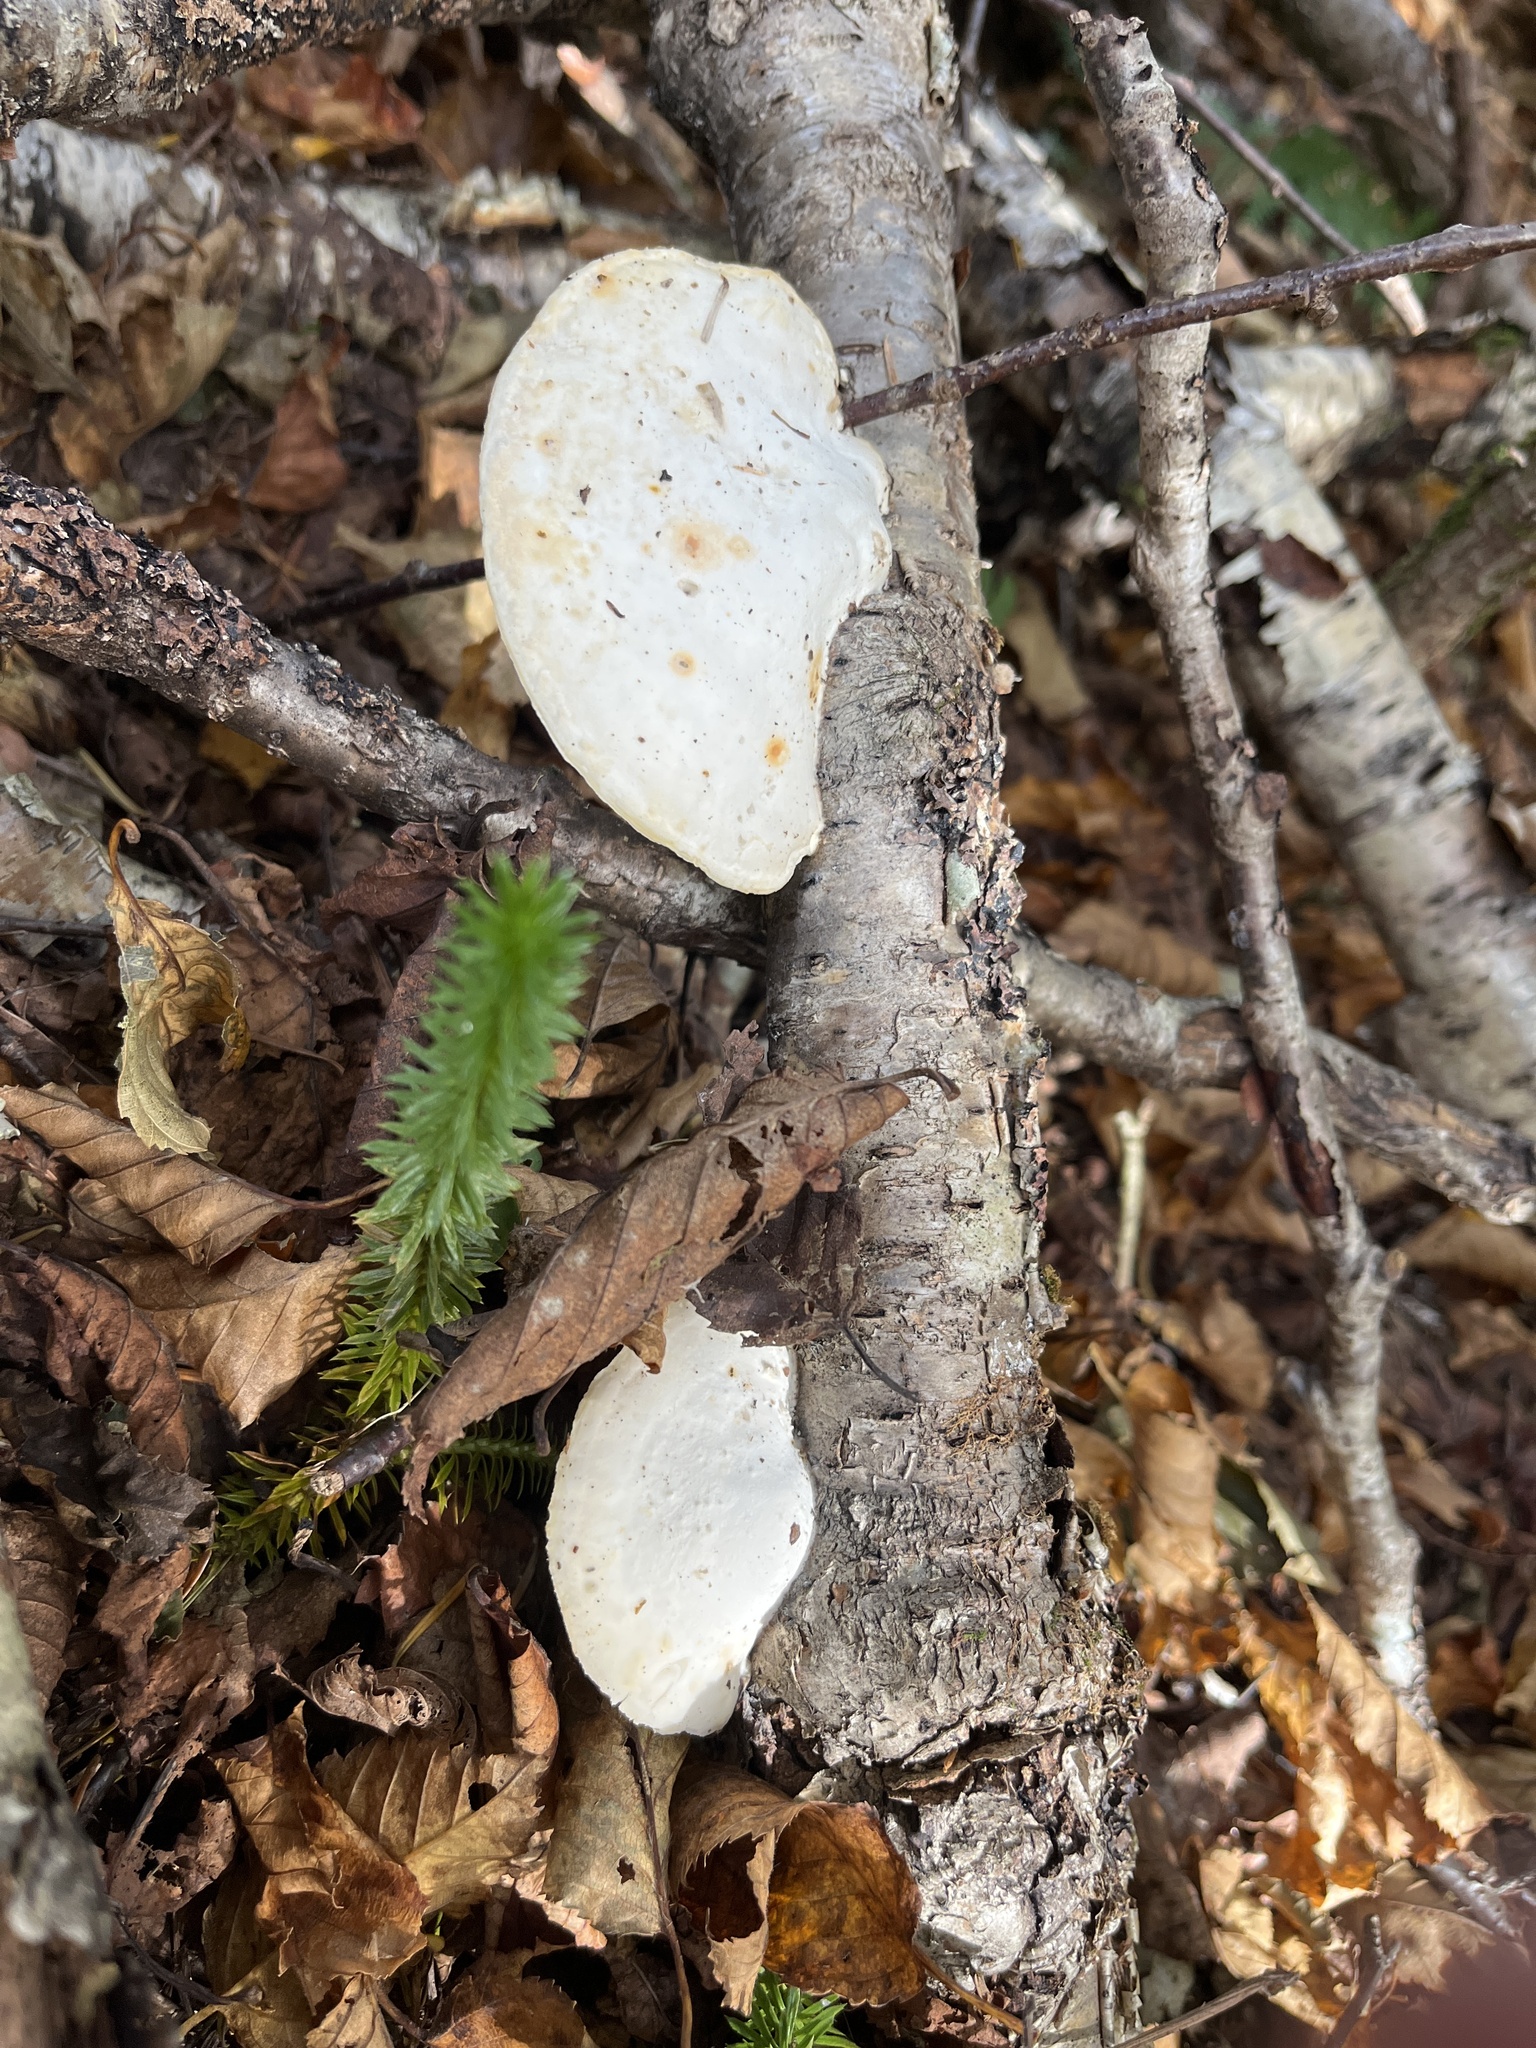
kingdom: Fungi
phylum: Basidiomycota
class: Agaricomycetes
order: Polyporales
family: Incrustoporiaceae
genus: Tyromyces
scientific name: Tyromyces chioneus
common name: White cheese polypore
